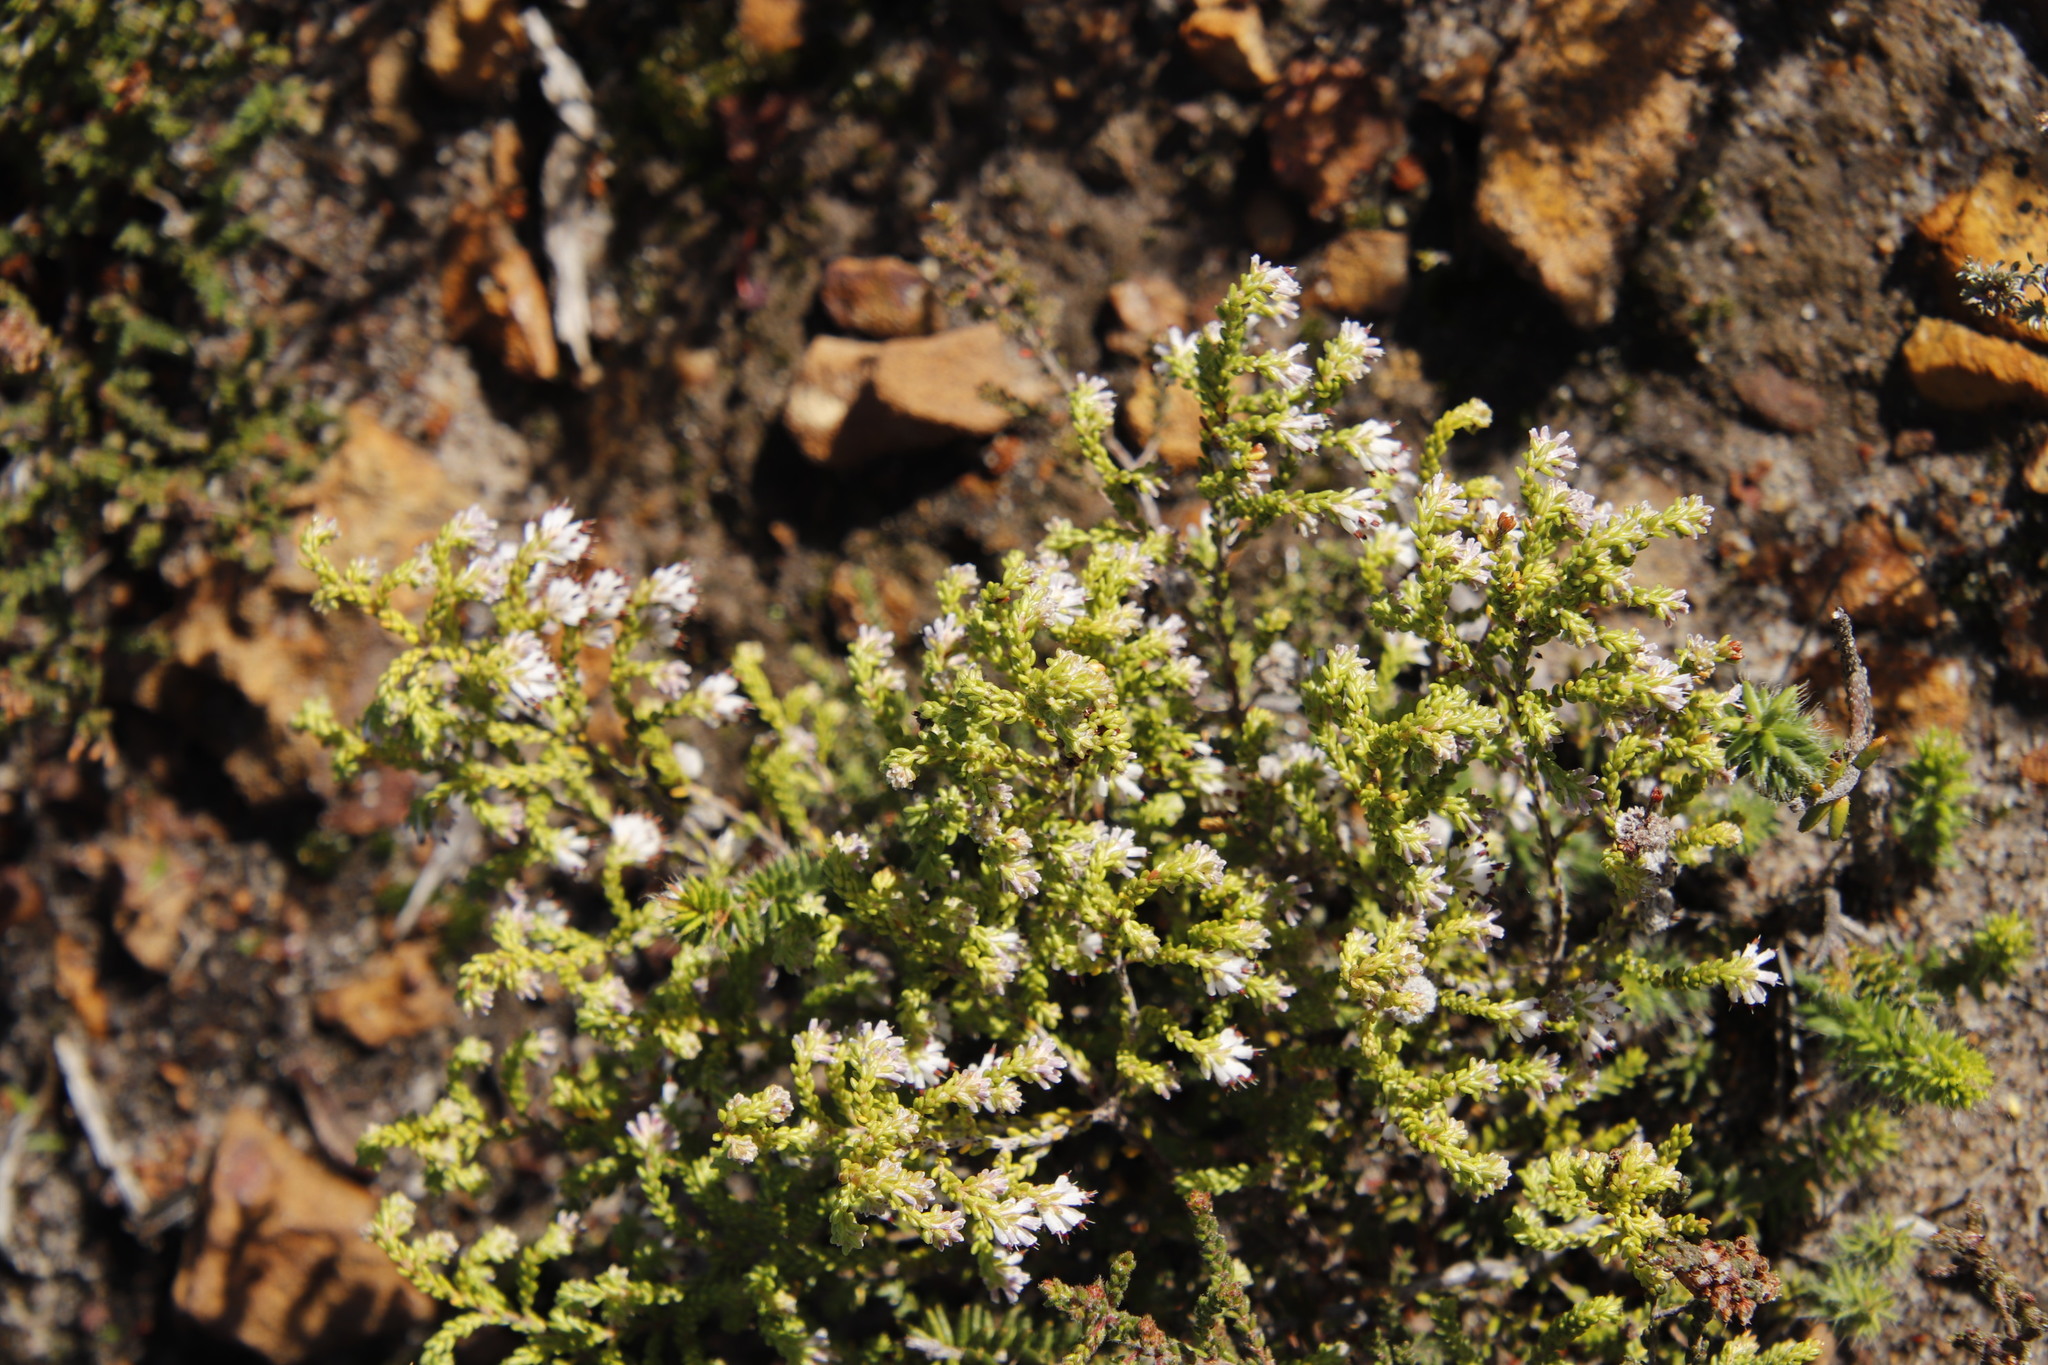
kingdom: Plantae
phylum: Tracheophyta
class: Magnoliopsida
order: Ericales
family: Ericaceae
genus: Erica
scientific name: Erica labialis
